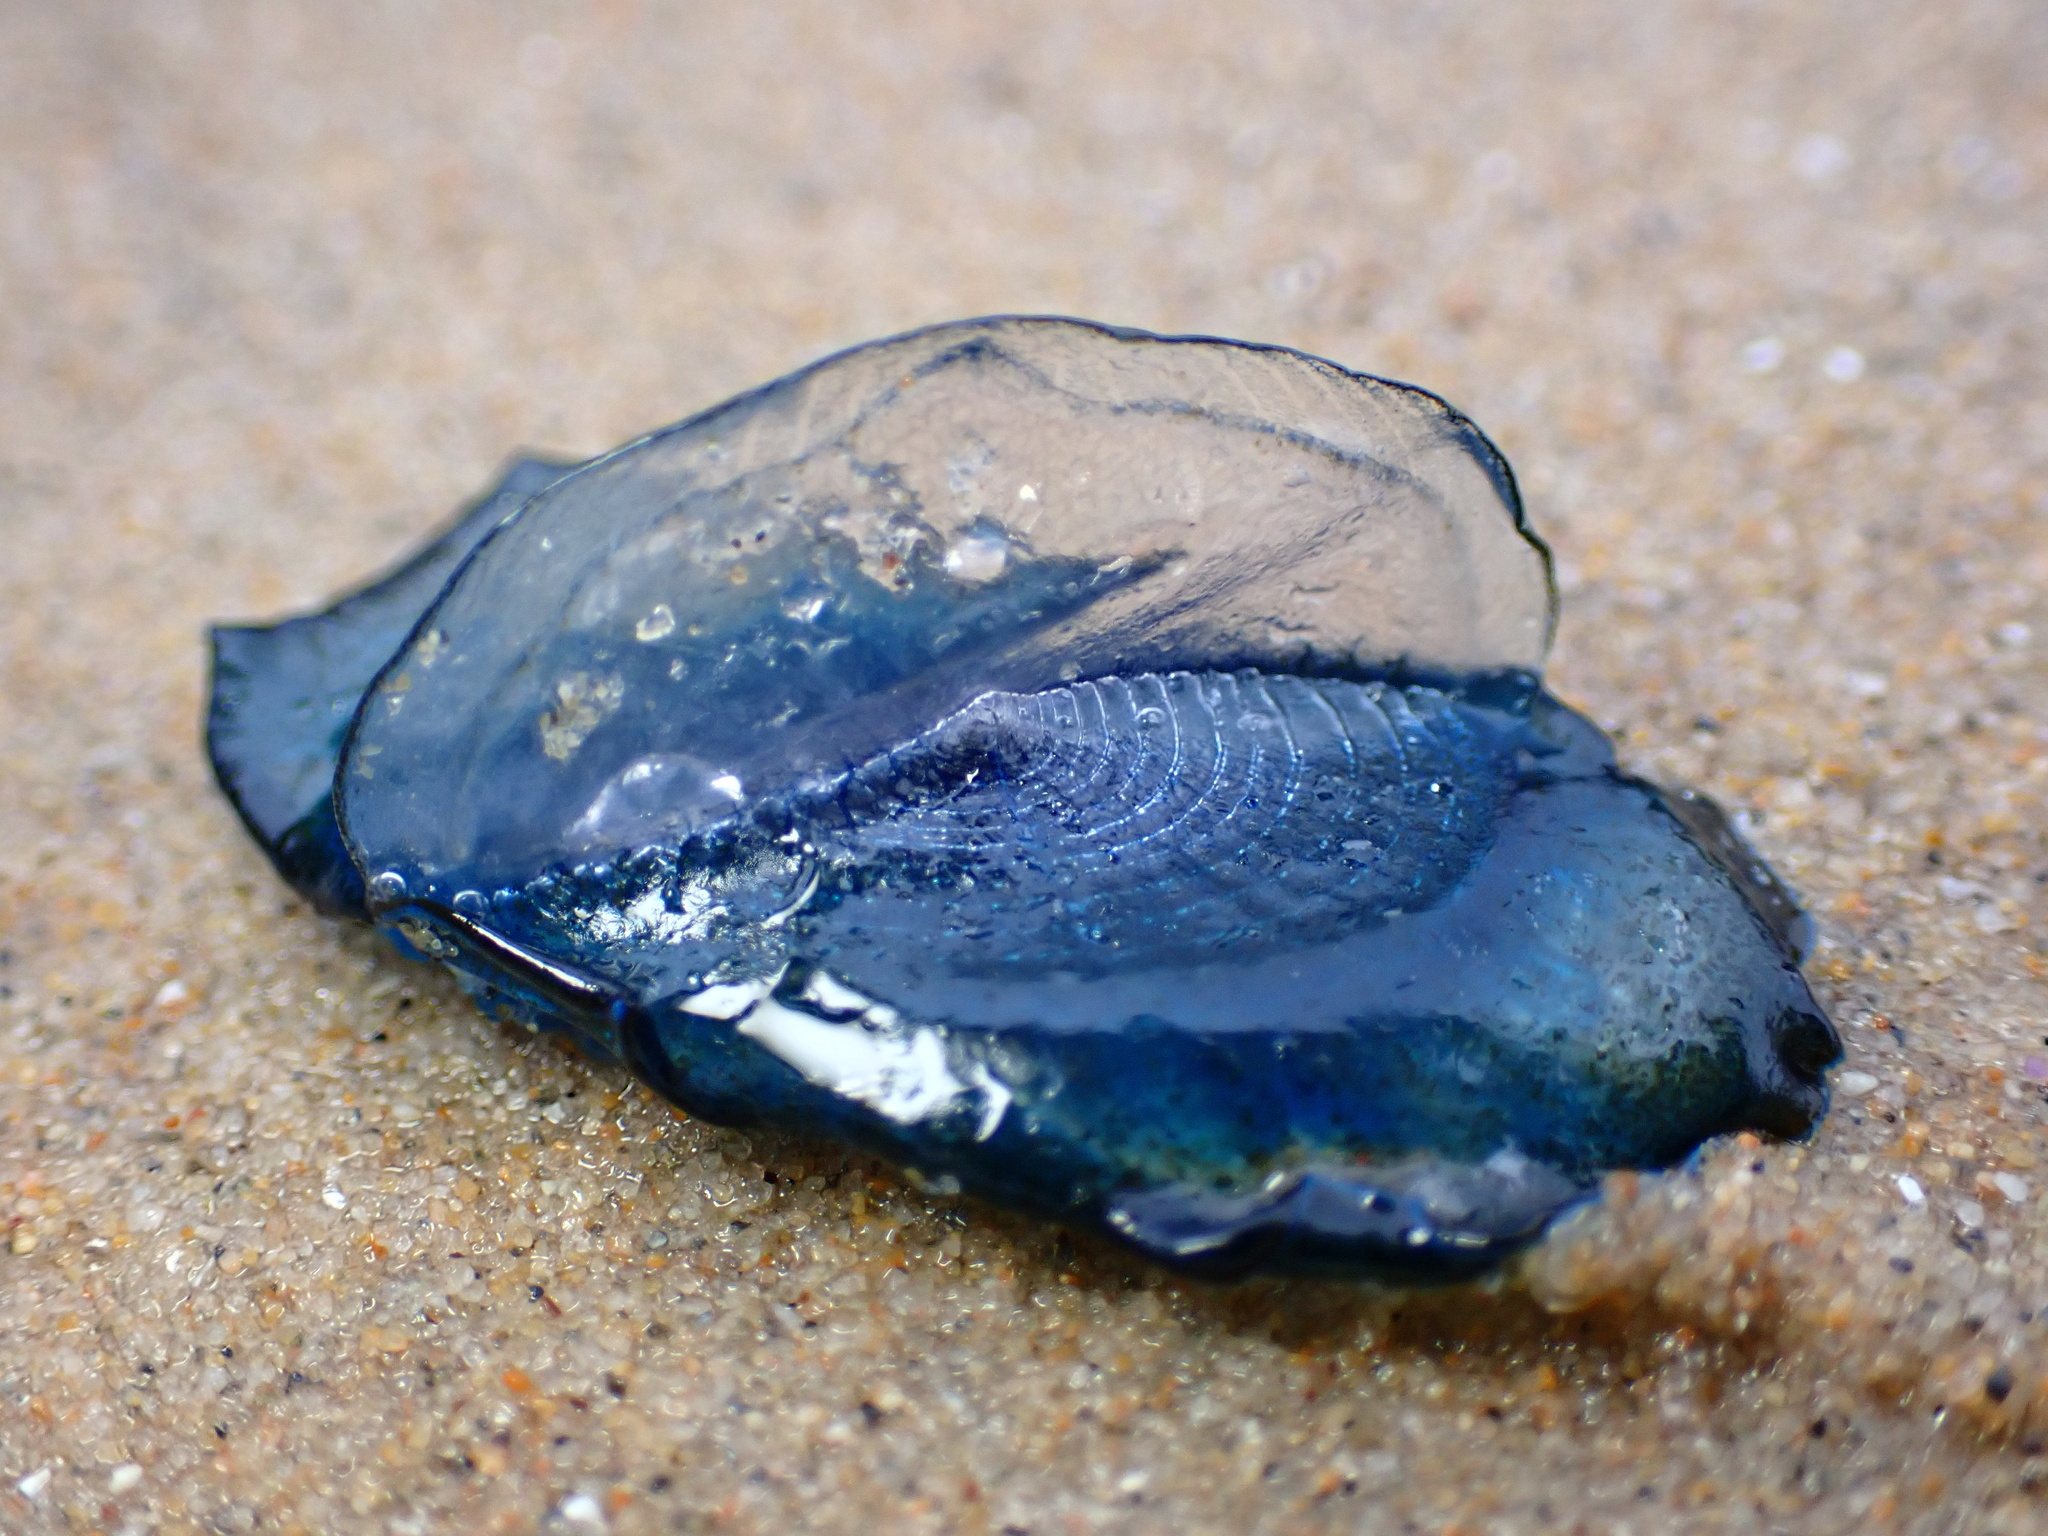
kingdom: Animalia
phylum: Cnidaria
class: Hydrozoa
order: Anthoathecata
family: Porpitidae
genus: Velella
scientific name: Velella velella
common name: By-the-wind-sailor
